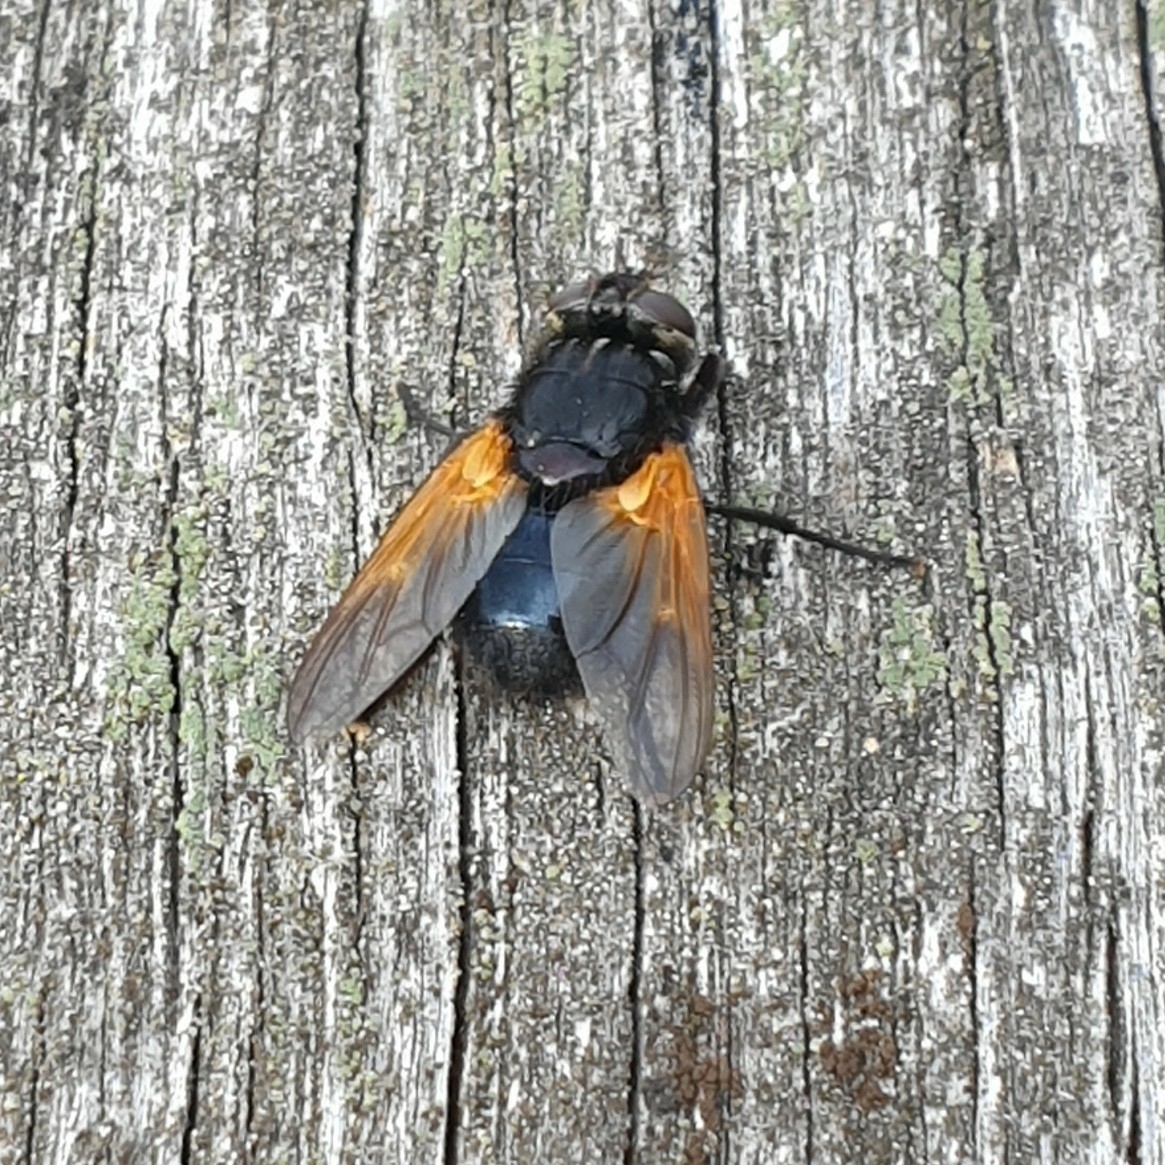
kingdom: Animalia
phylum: Arthropoda
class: Insecta
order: Diptera
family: Muscidae
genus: Mesembrina
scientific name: Mesembrina meridiana
